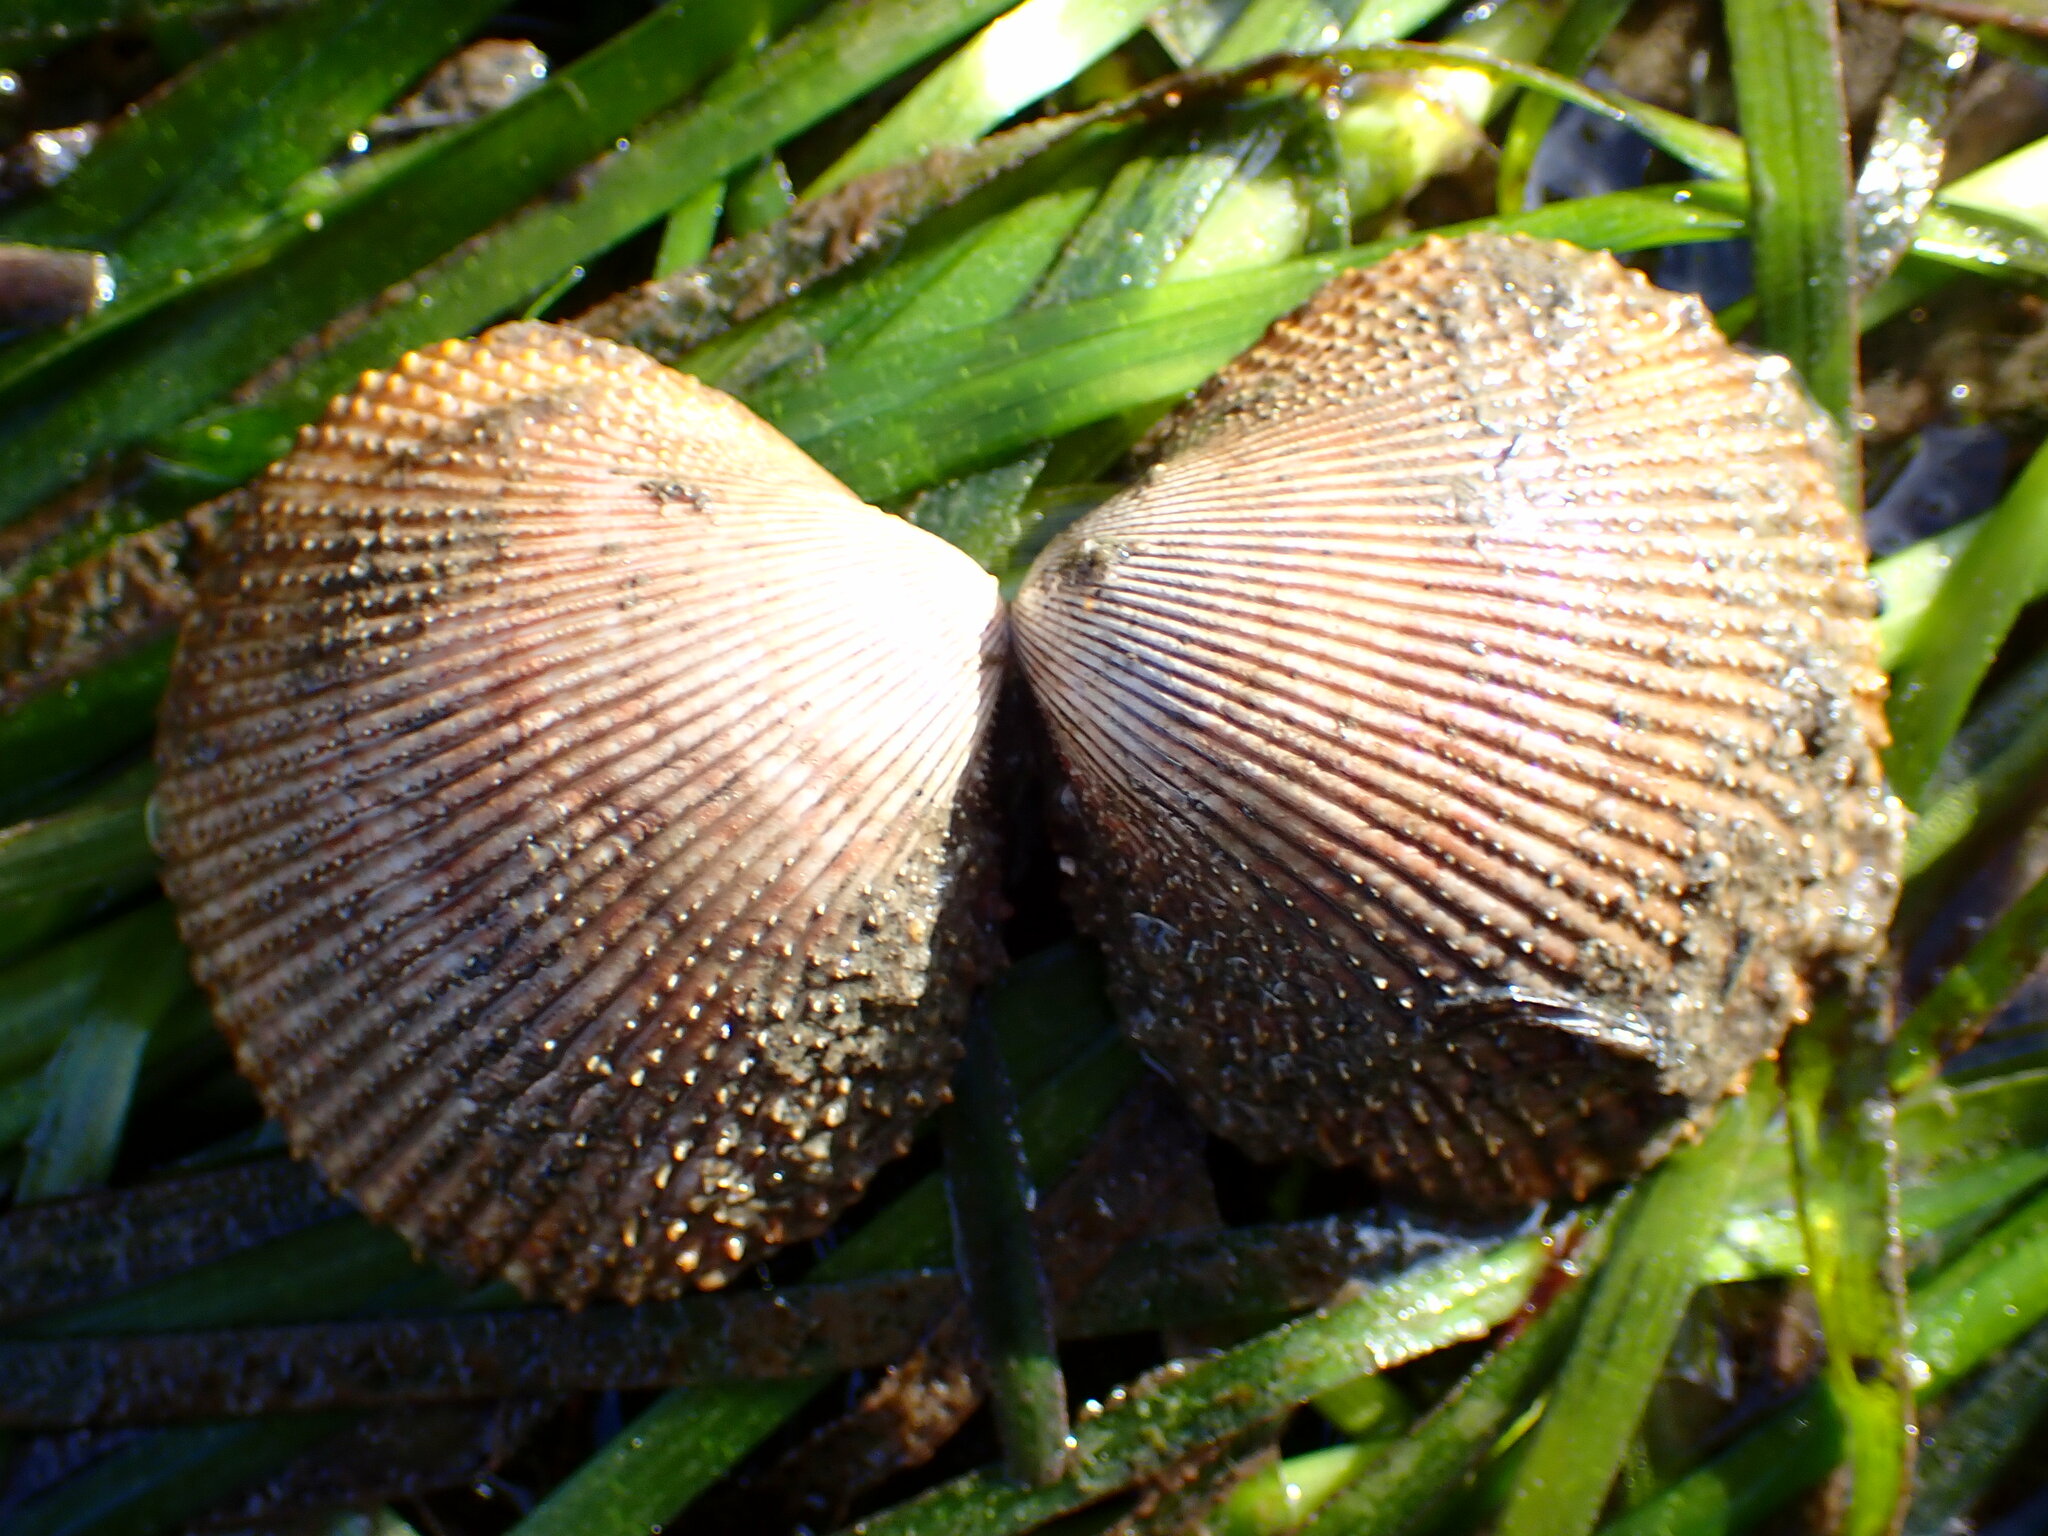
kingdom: Animalia
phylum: Mollusca
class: Bivalvia
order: Cardiida
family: Cardiidae
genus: Dallocardia
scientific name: Dallocardia quadragenaria
